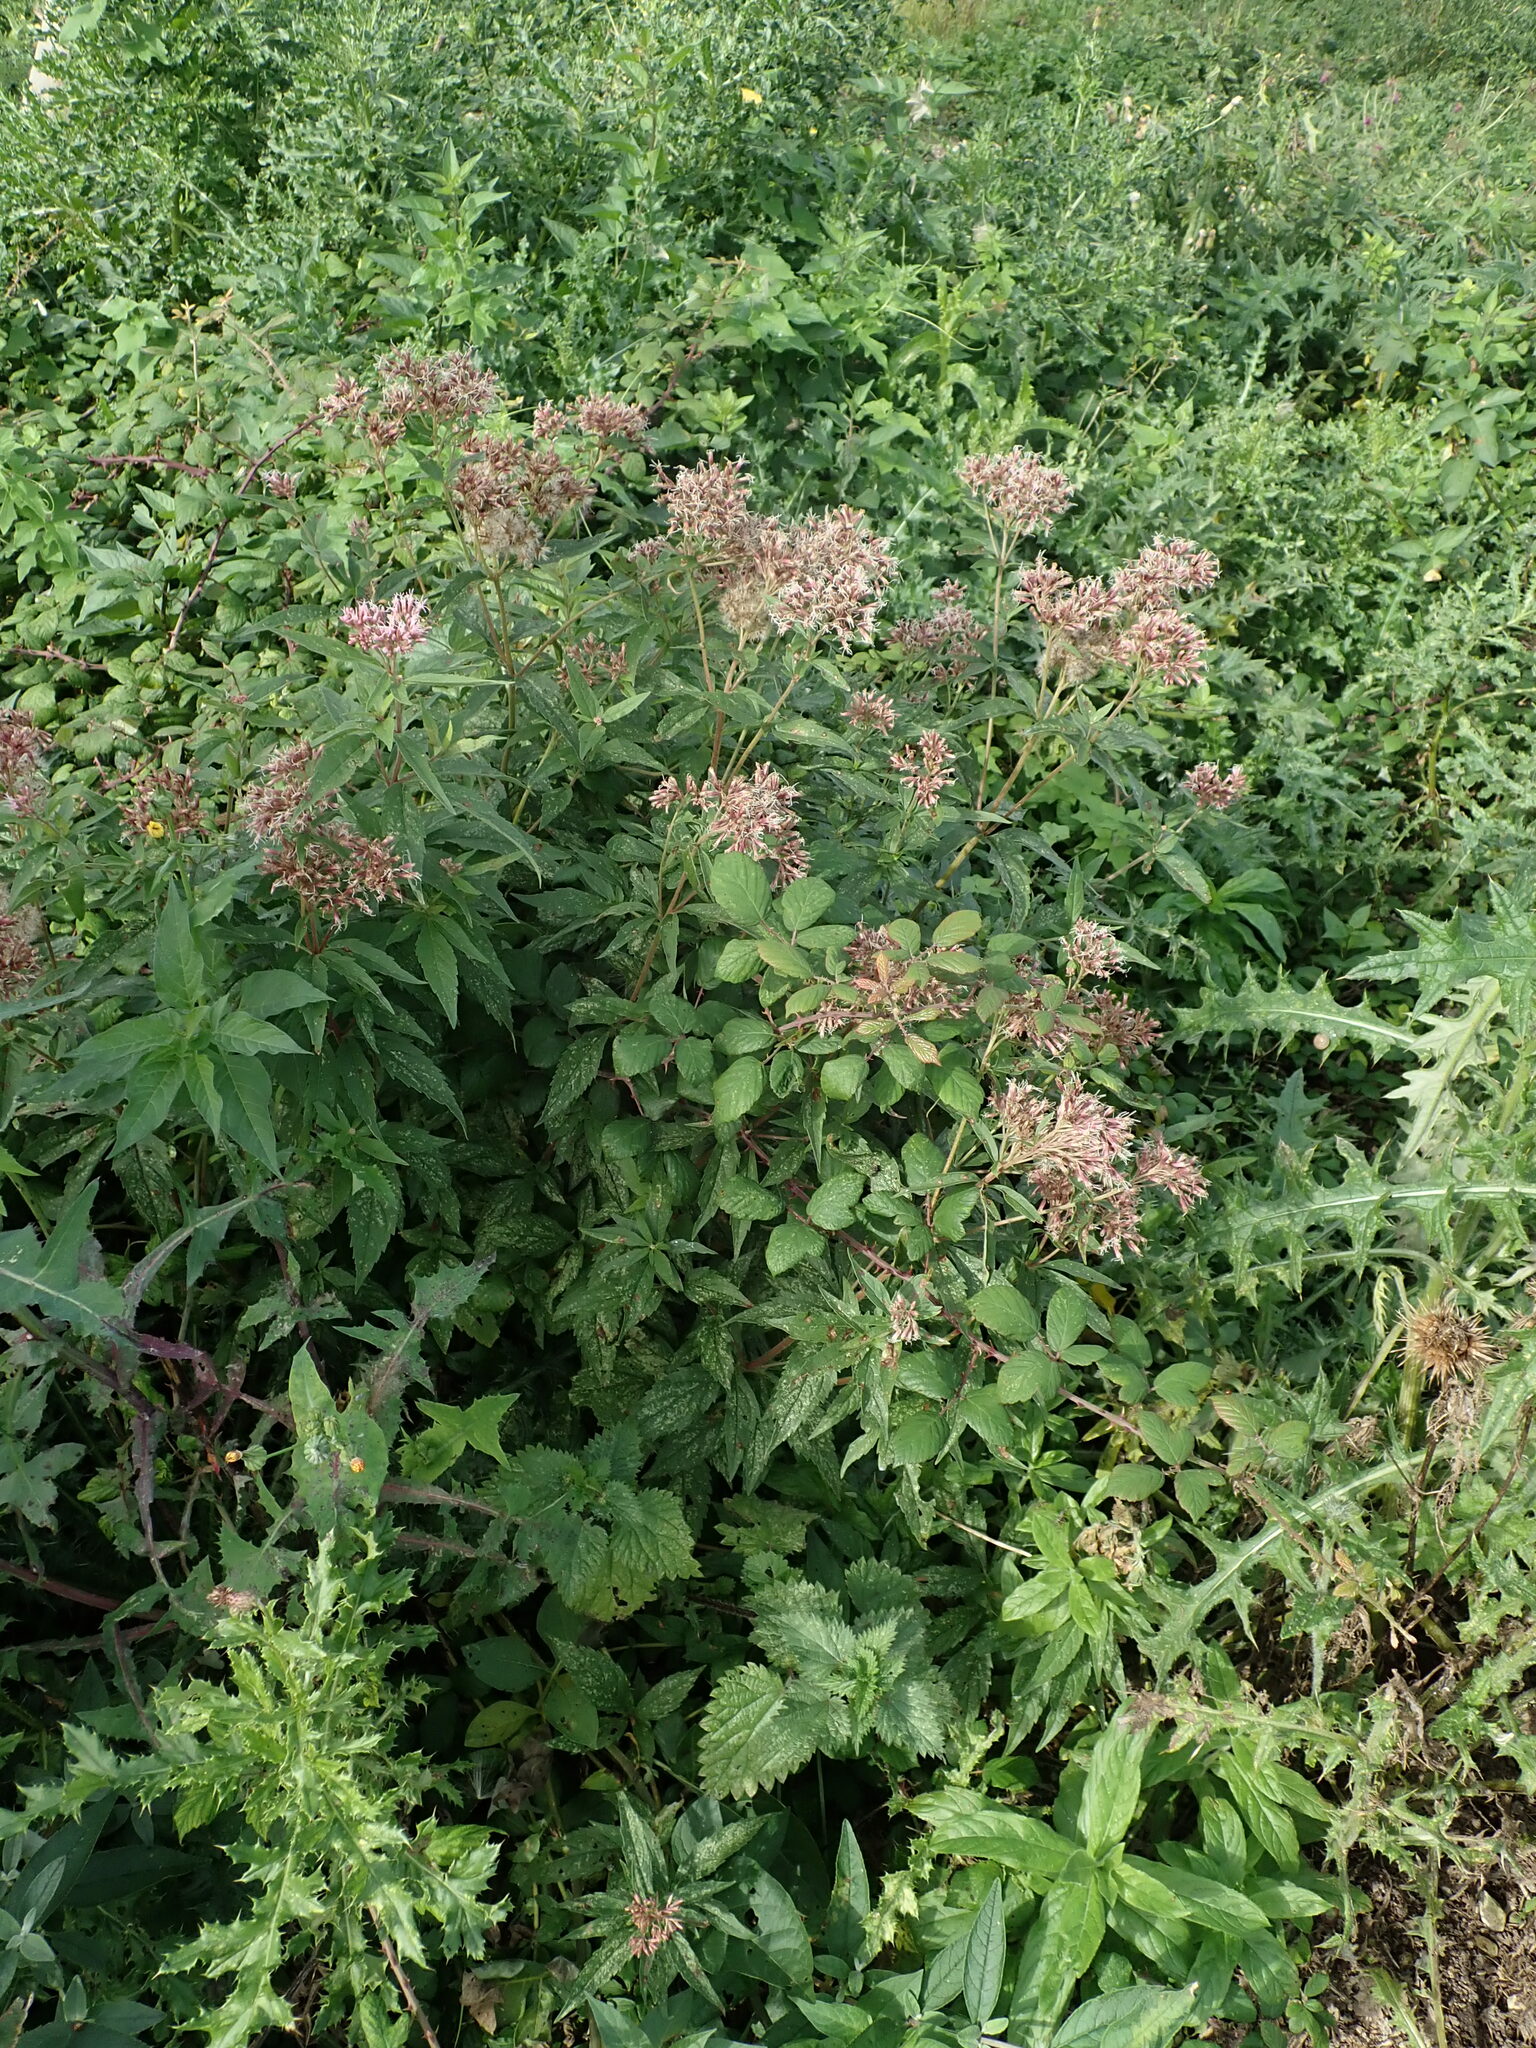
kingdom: Plantae
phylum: Tracheophyta
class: Magnoliopsida
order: Asterales
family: Asteraceae
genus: Eupatorium
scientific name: Eupatorium cannabinum
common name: Hemp-agrimony
